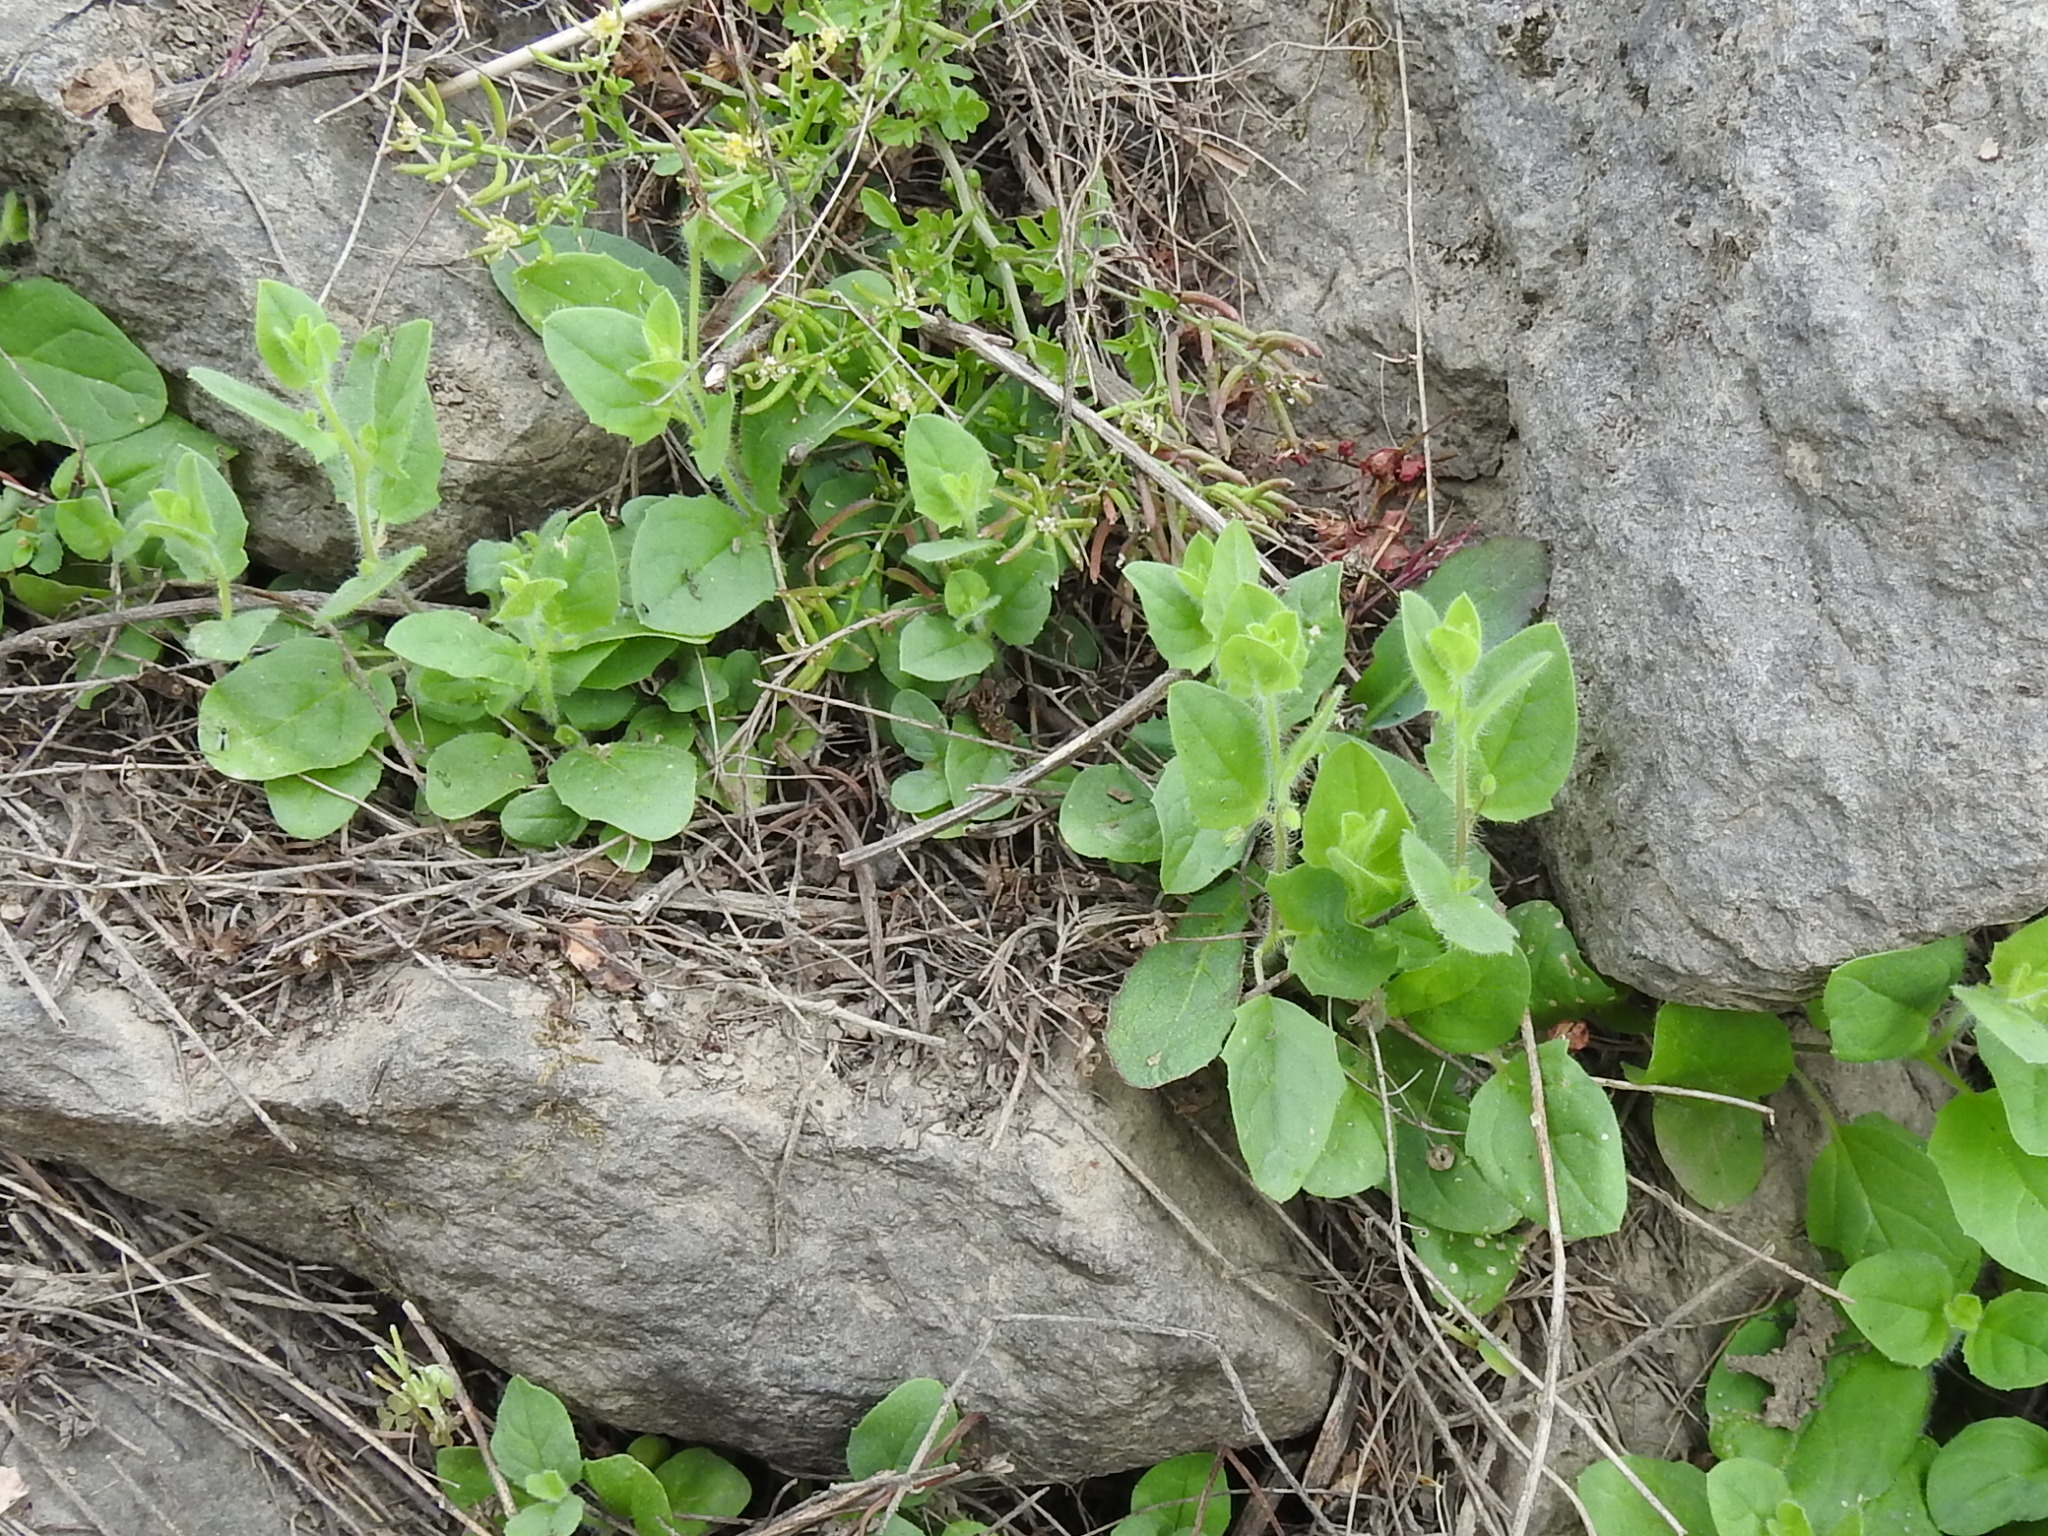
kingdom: Plantae
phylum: Tracheophyta
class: Magnoliopsida
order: Lamiales
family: Plantaginaceae
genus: Kickxia
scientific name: Kickxia elatine
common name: Sharp-leaved fluellen
